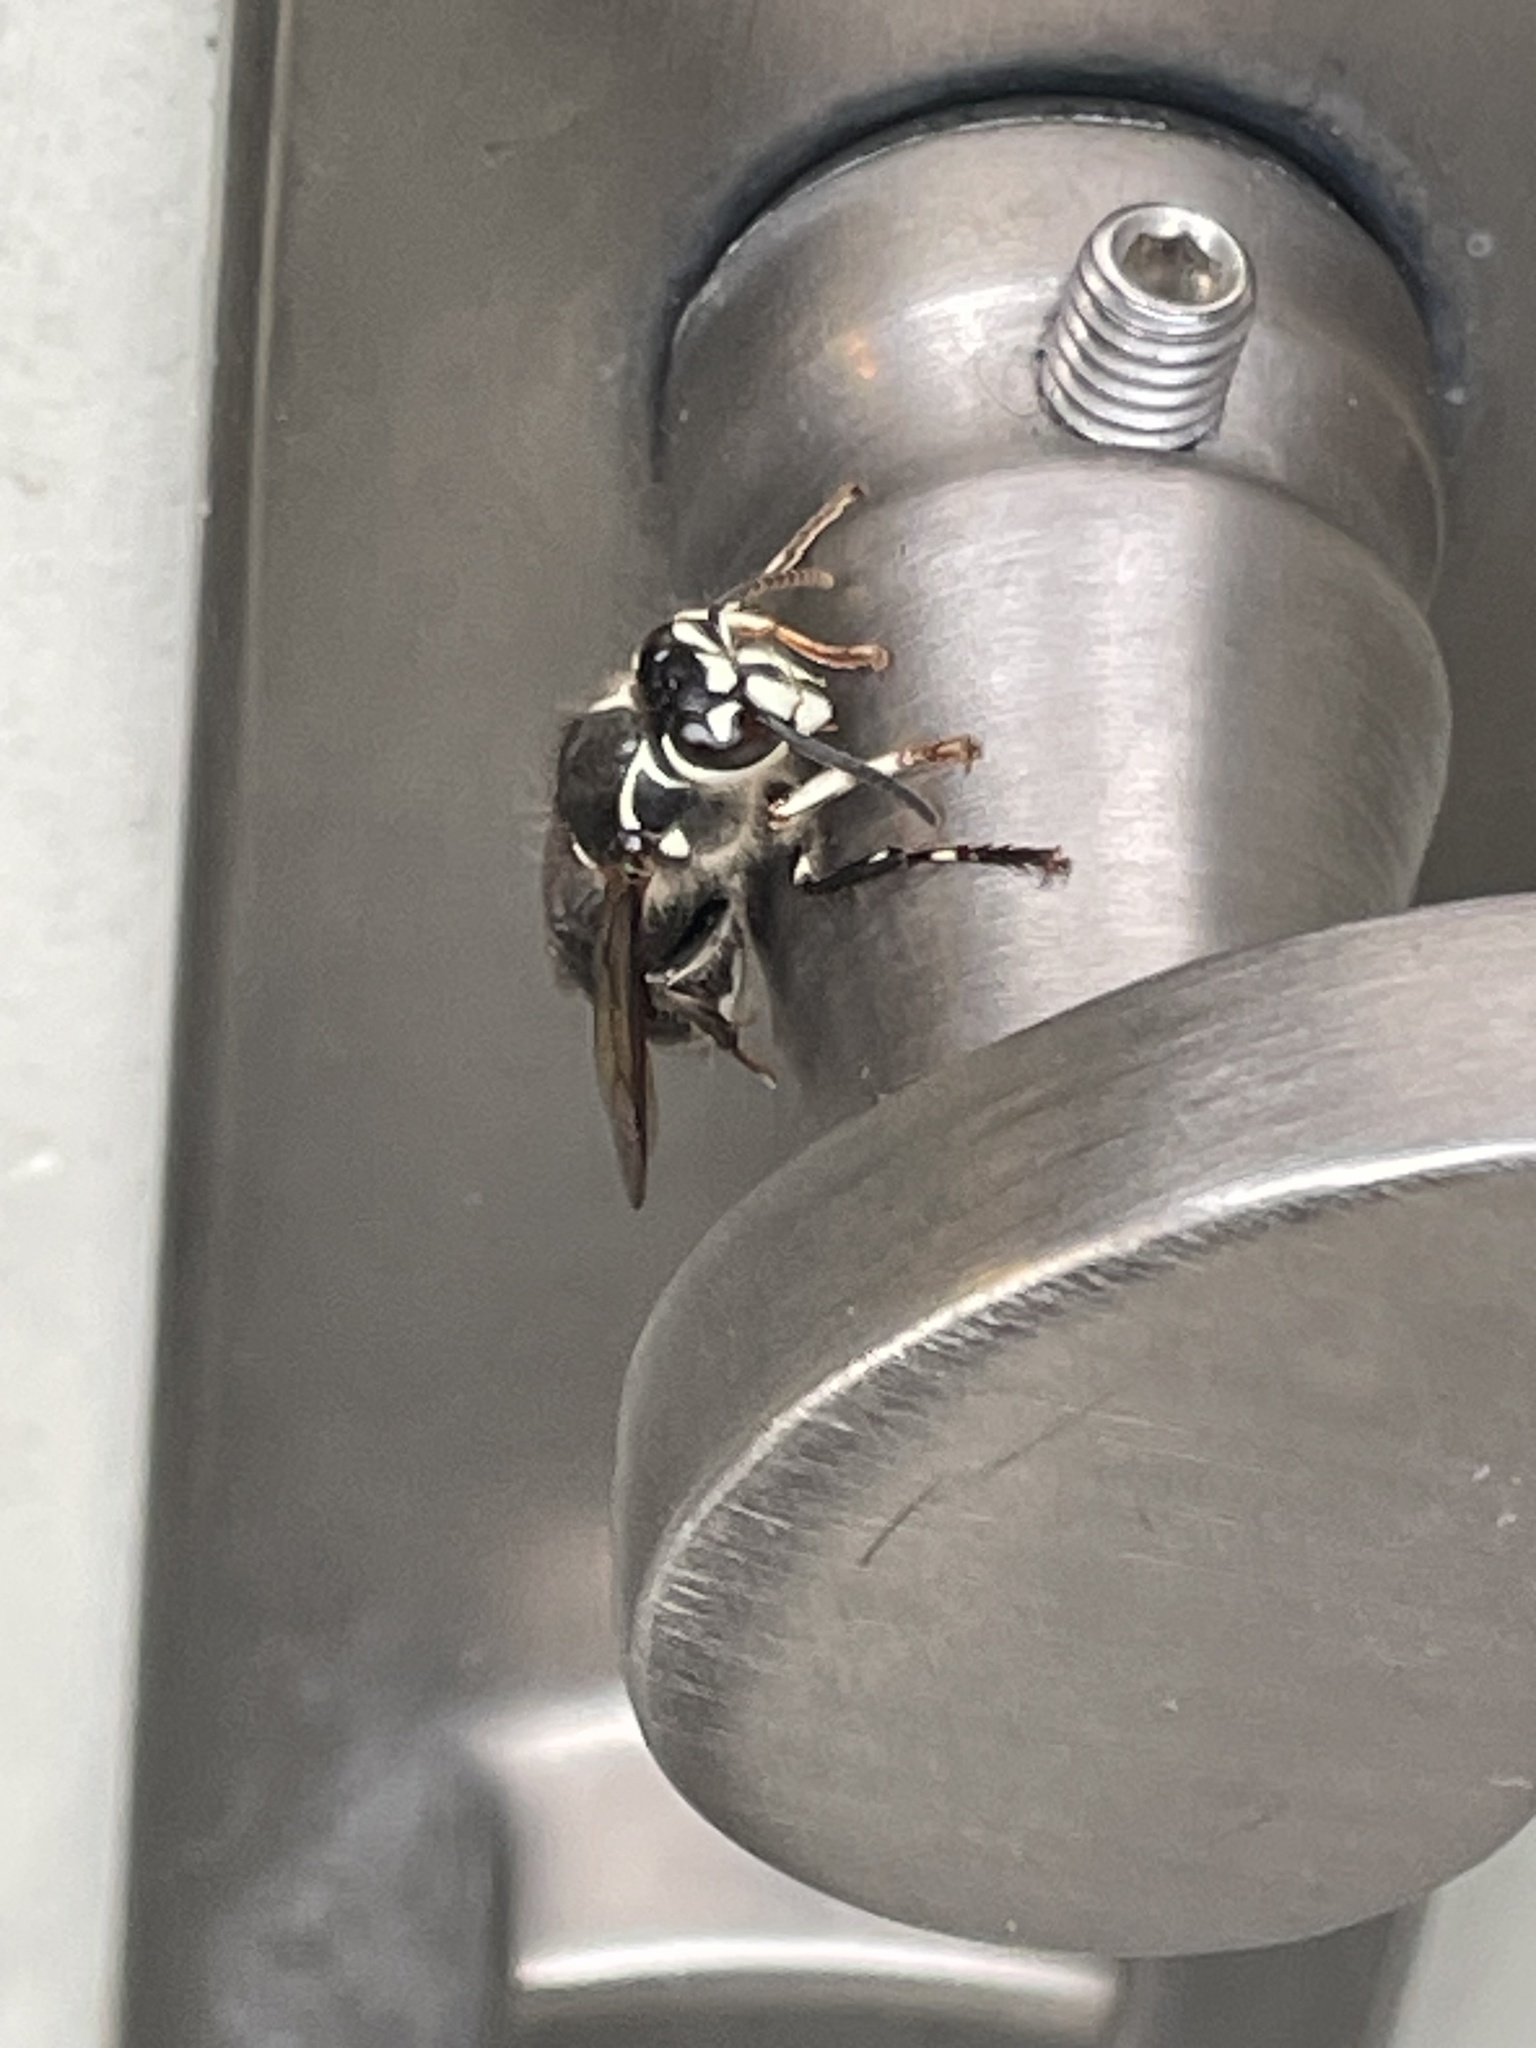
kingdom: Animalia
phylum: Arthropoda
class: Insecta
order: Hymenoptera
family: Vespidae
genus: Dolichovespula
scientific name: Dolichovespula maculata
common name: Bald-faced hornet
